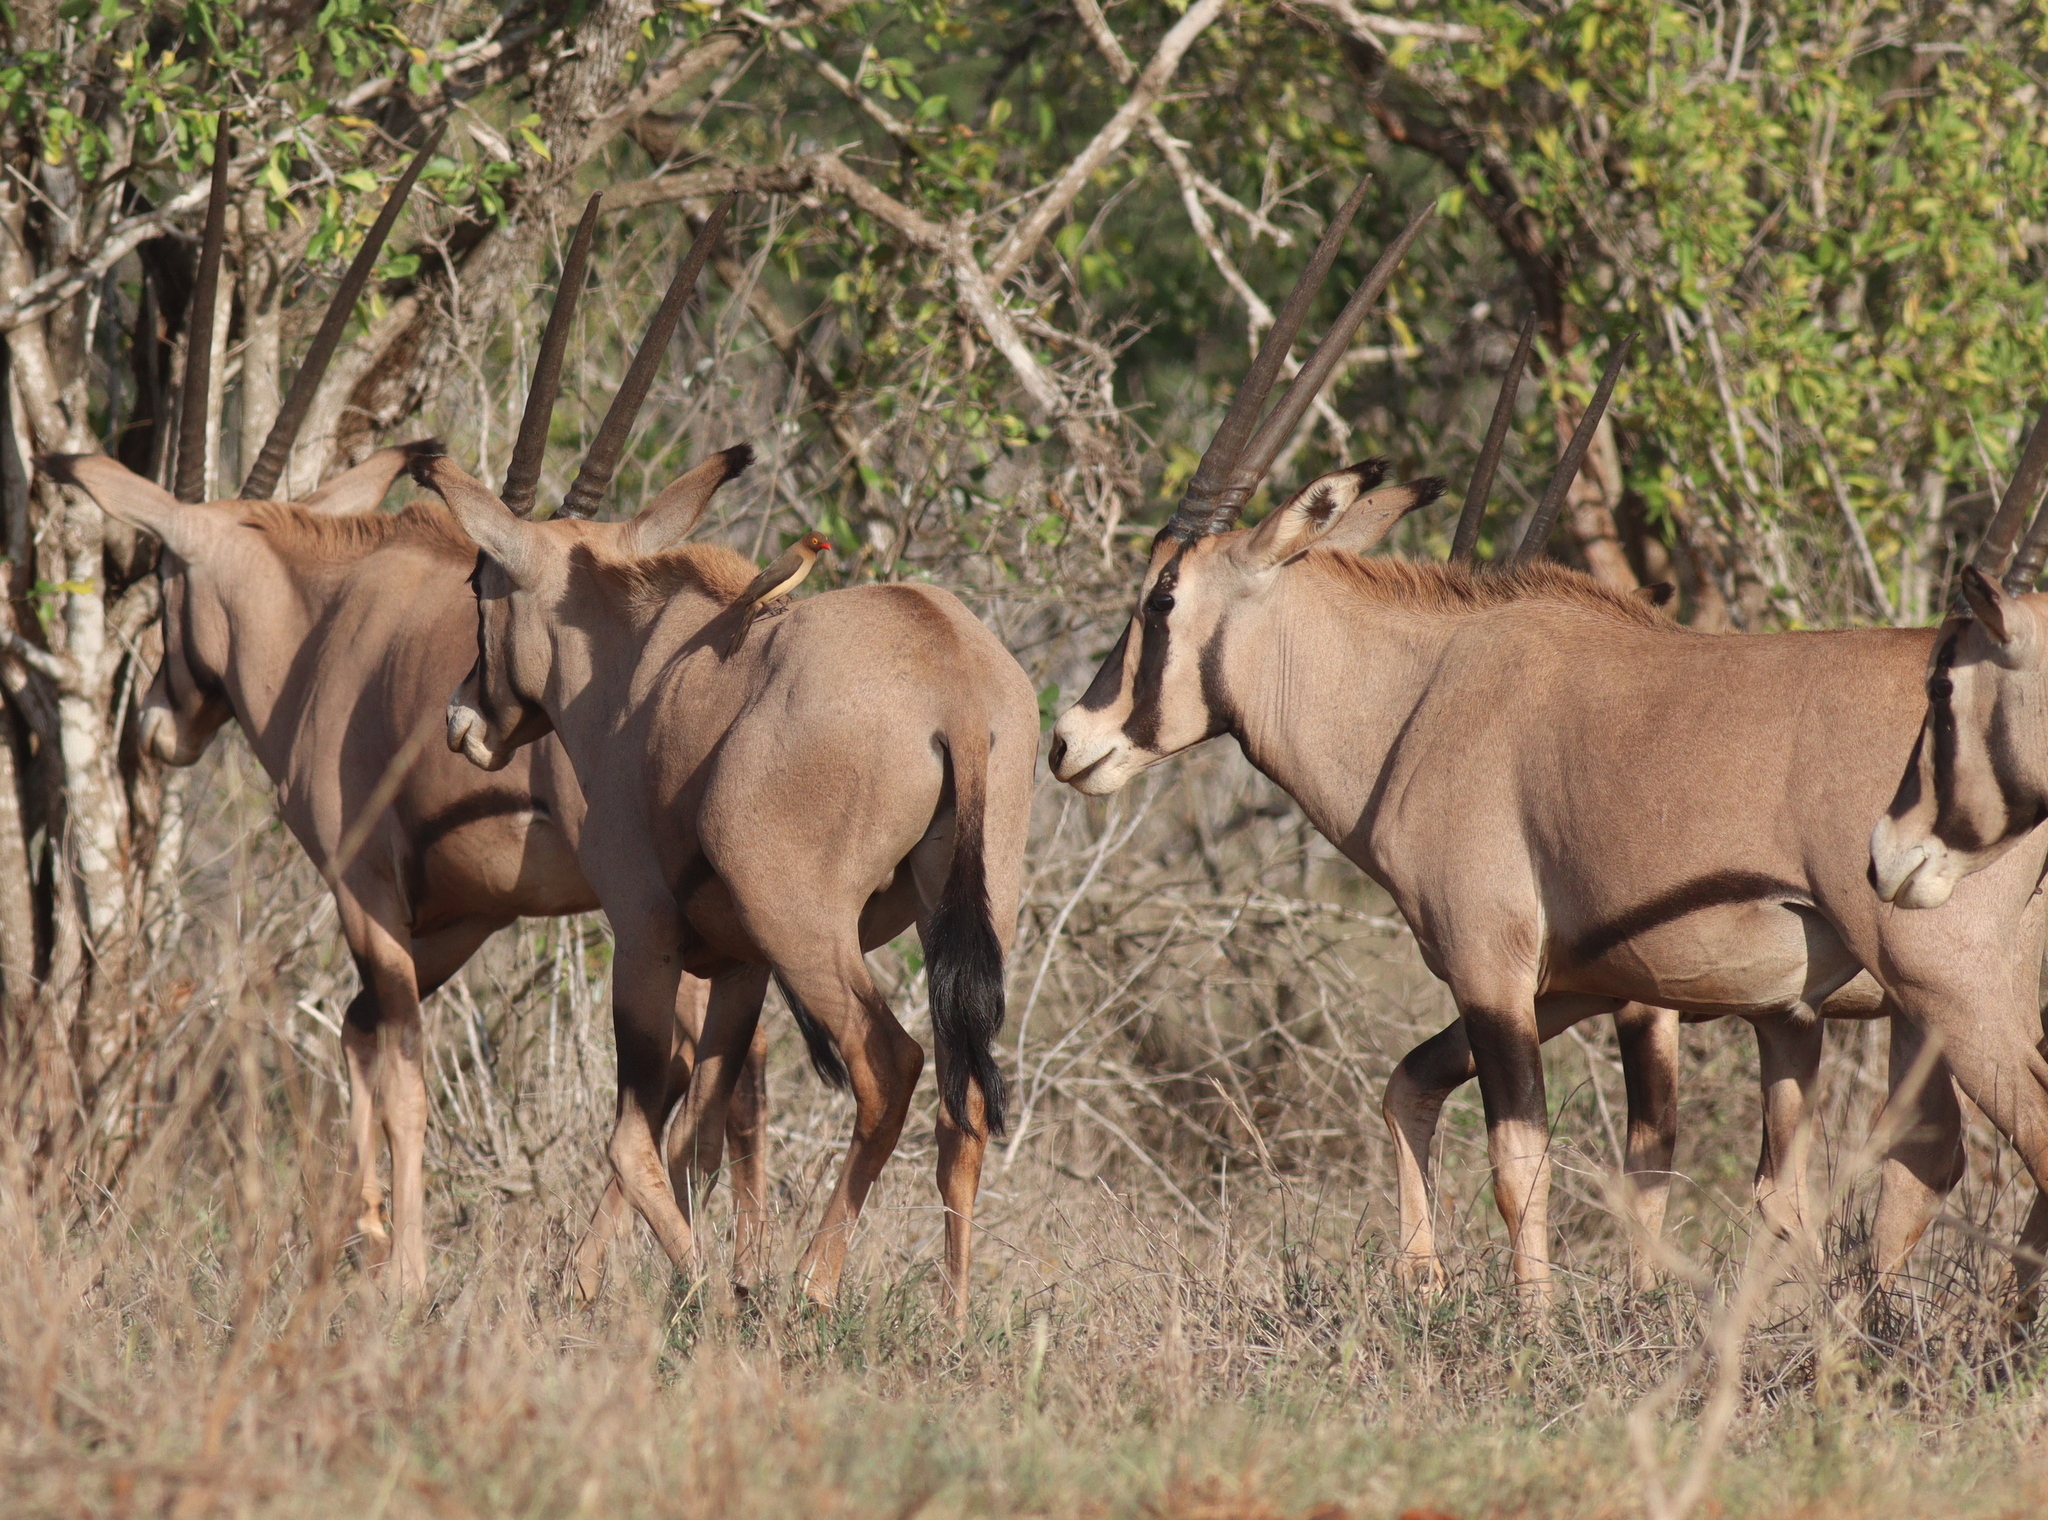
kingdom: Animalia
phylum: Chordata
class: Mammalia
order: Artiodactyla
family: Bovidae
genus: Oryx
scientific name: Oryx beisa
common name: Beisa
